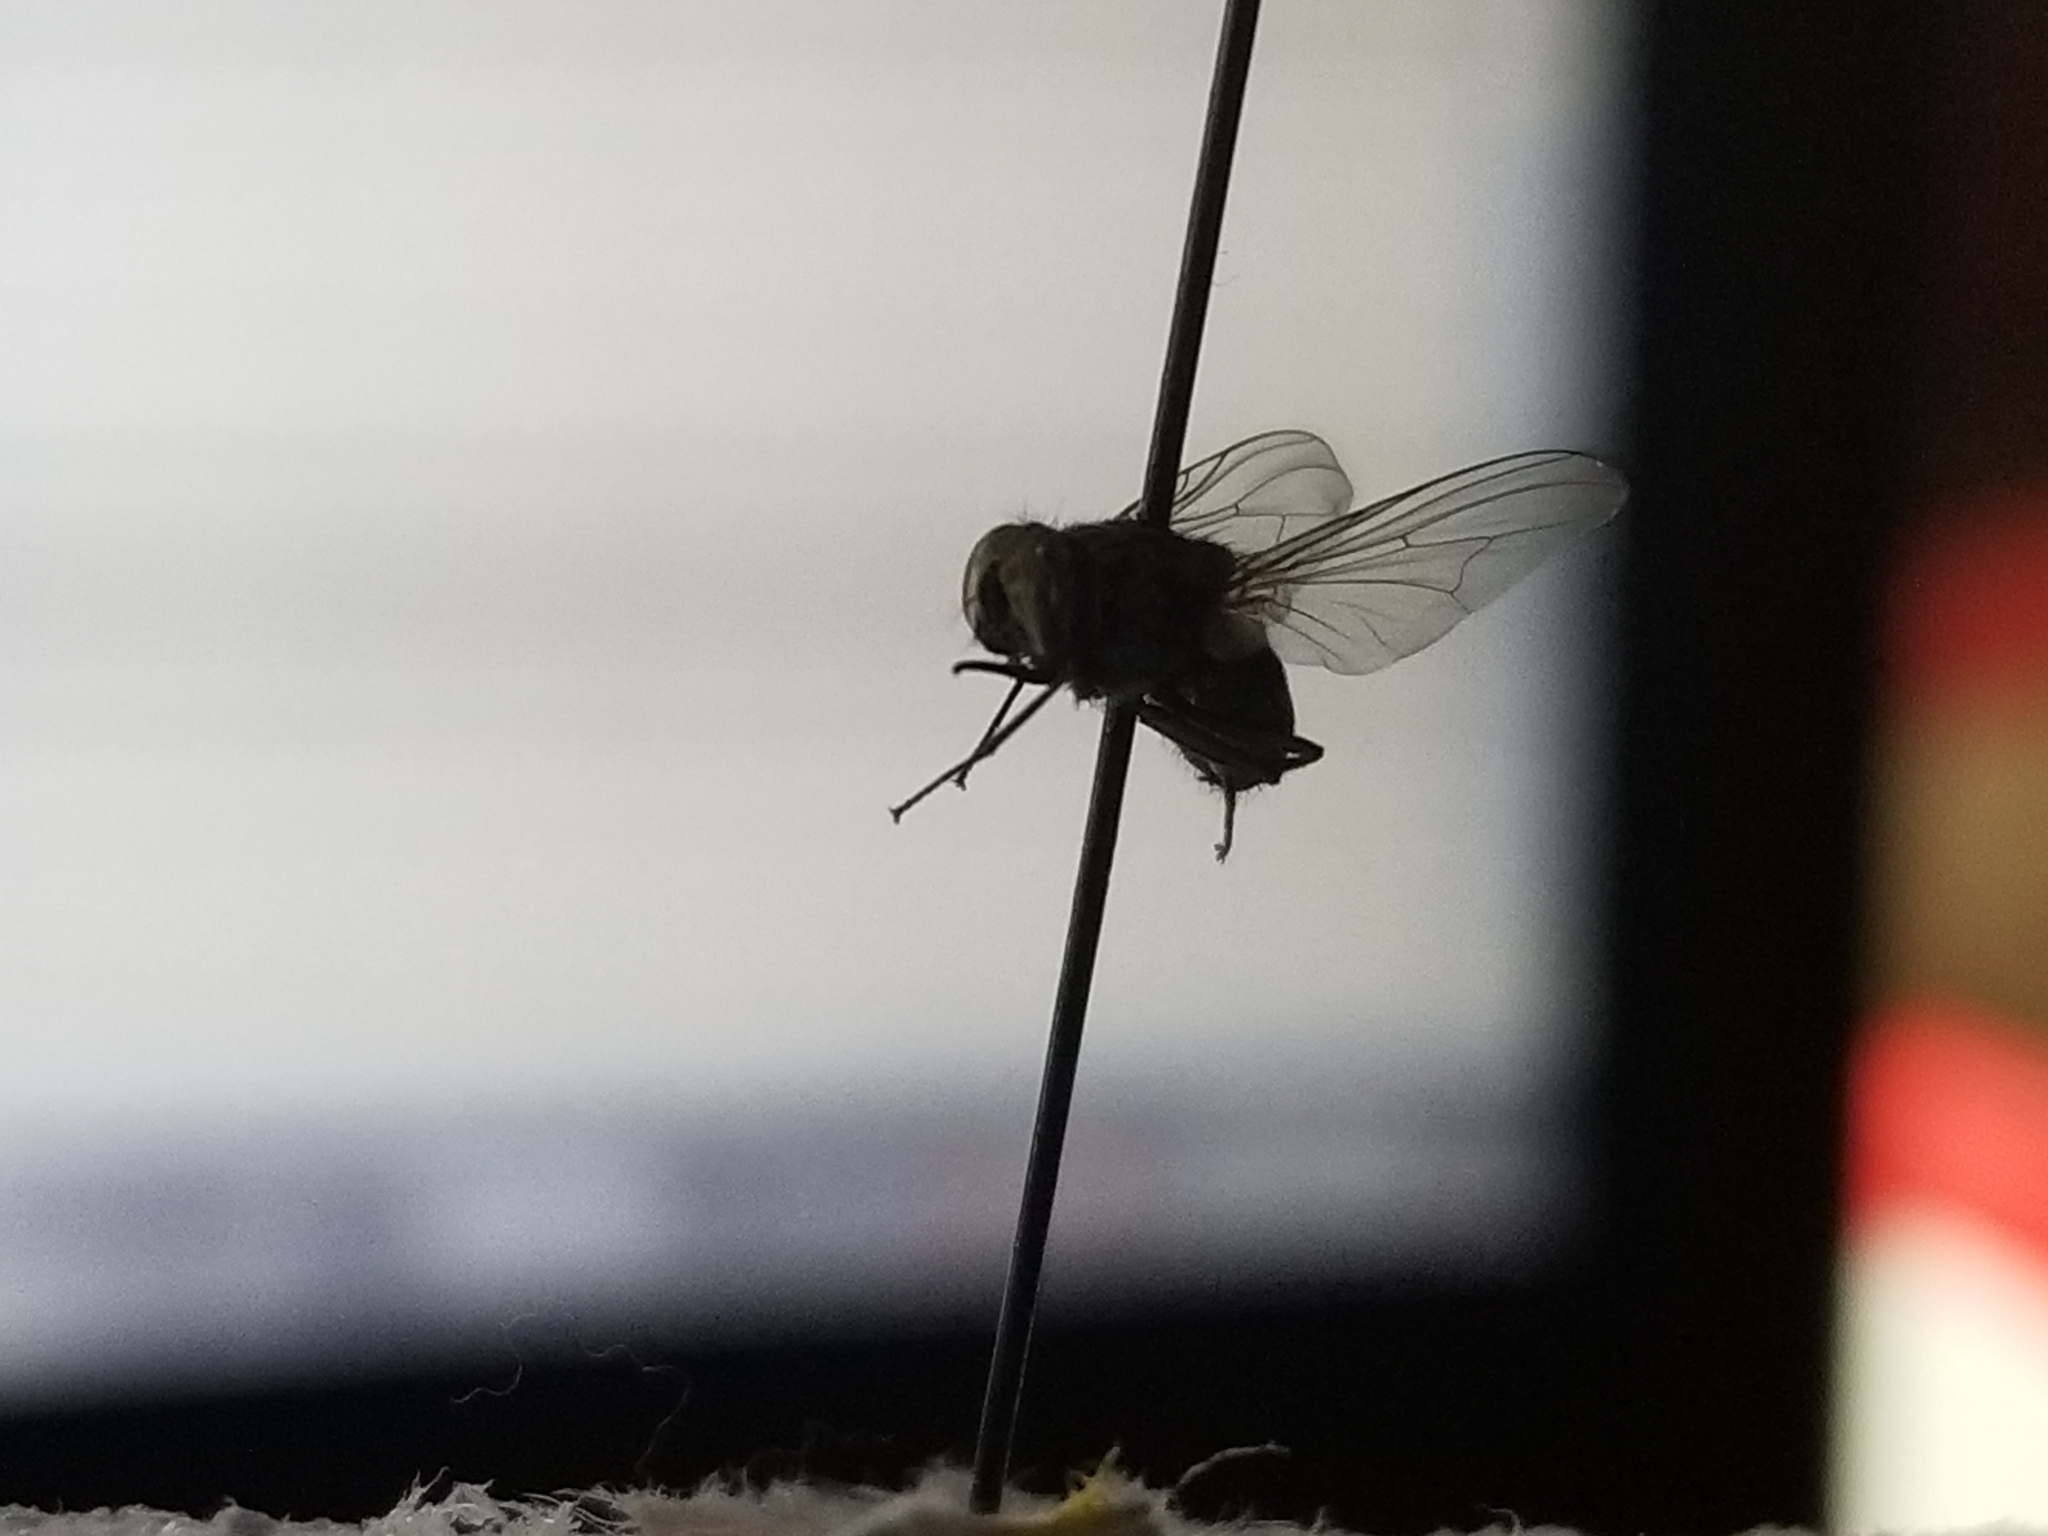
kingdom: Animalia
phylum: Arthropoda
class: Insecta
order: Diptera
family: Muscidae
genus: Stomoxys
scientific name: Stomoxys calcitrans
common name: Stable fly
